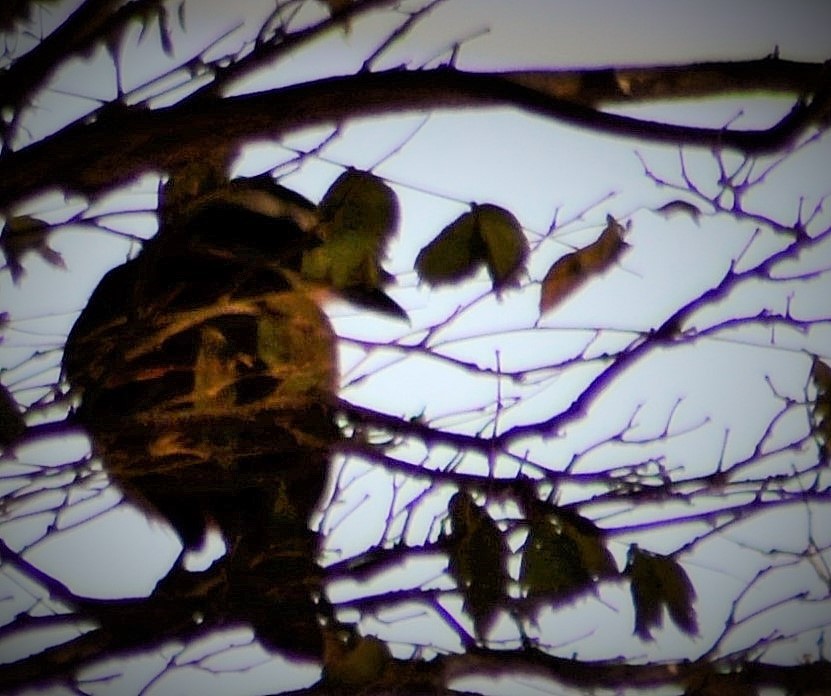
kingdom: Animalia
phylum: Chordata
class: Aves
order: Passeriformes
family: Tyrannidae
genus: Pitangus
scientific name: Pitangus sulphuratus
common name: Great kiskadee
